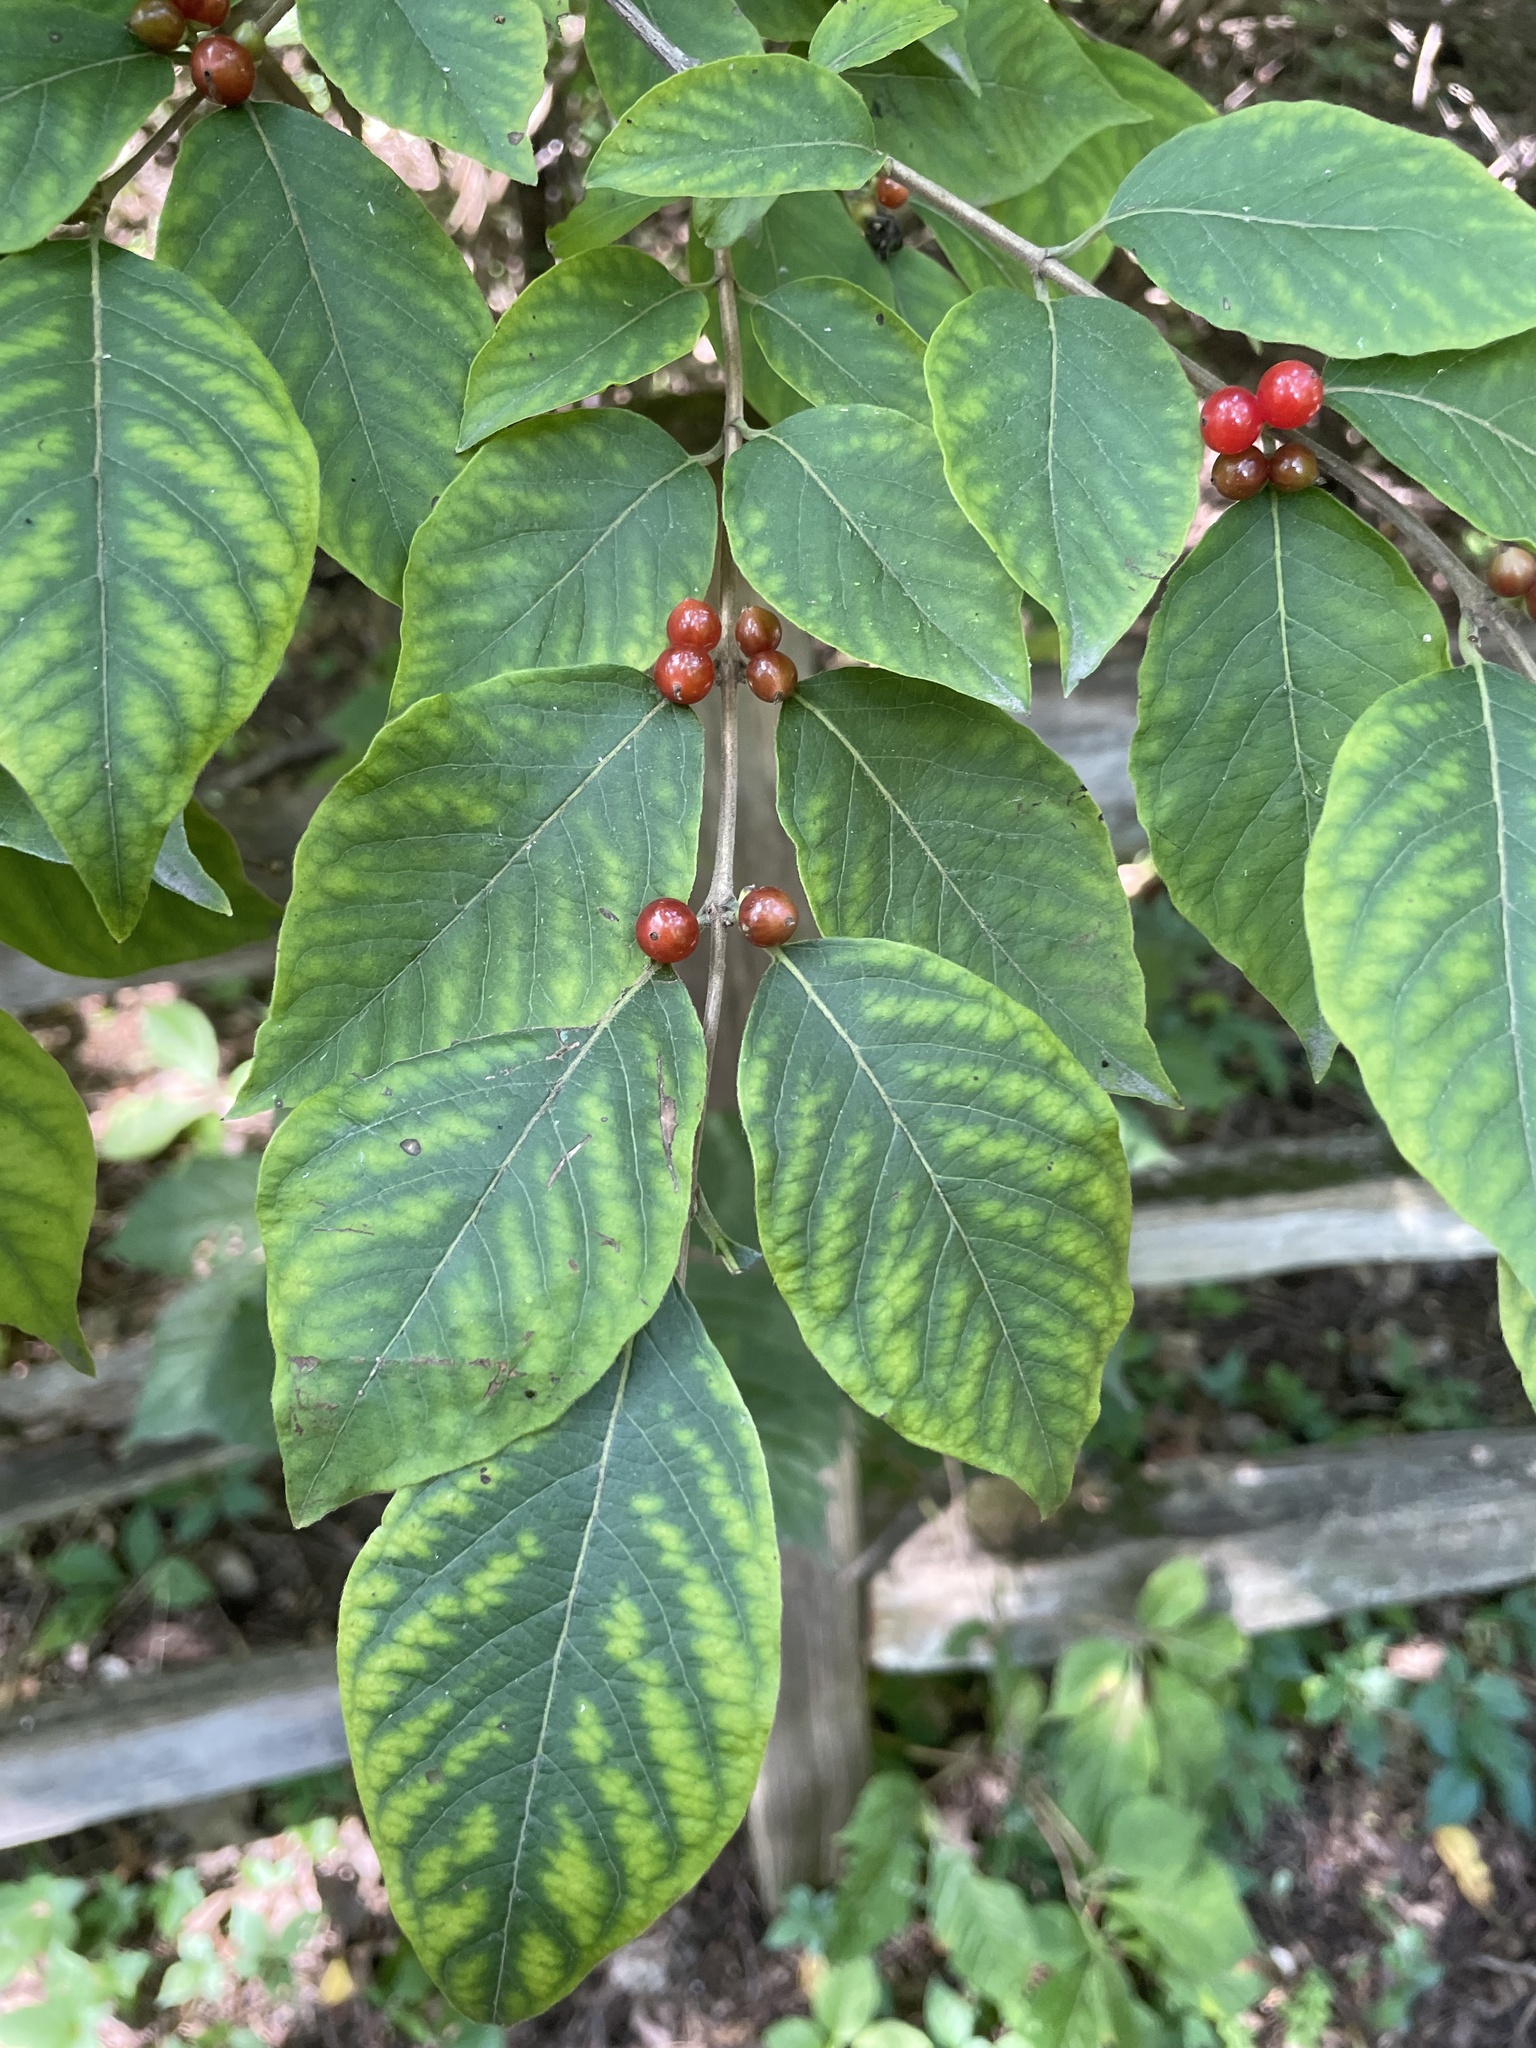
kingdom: Plantae
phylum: Tracheophyta
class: Magnoliopsida
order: Dipsacales
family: Caprifoliaceae
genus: Lonicera
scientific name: Lonicera maackii
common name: Amur honeysuckle
